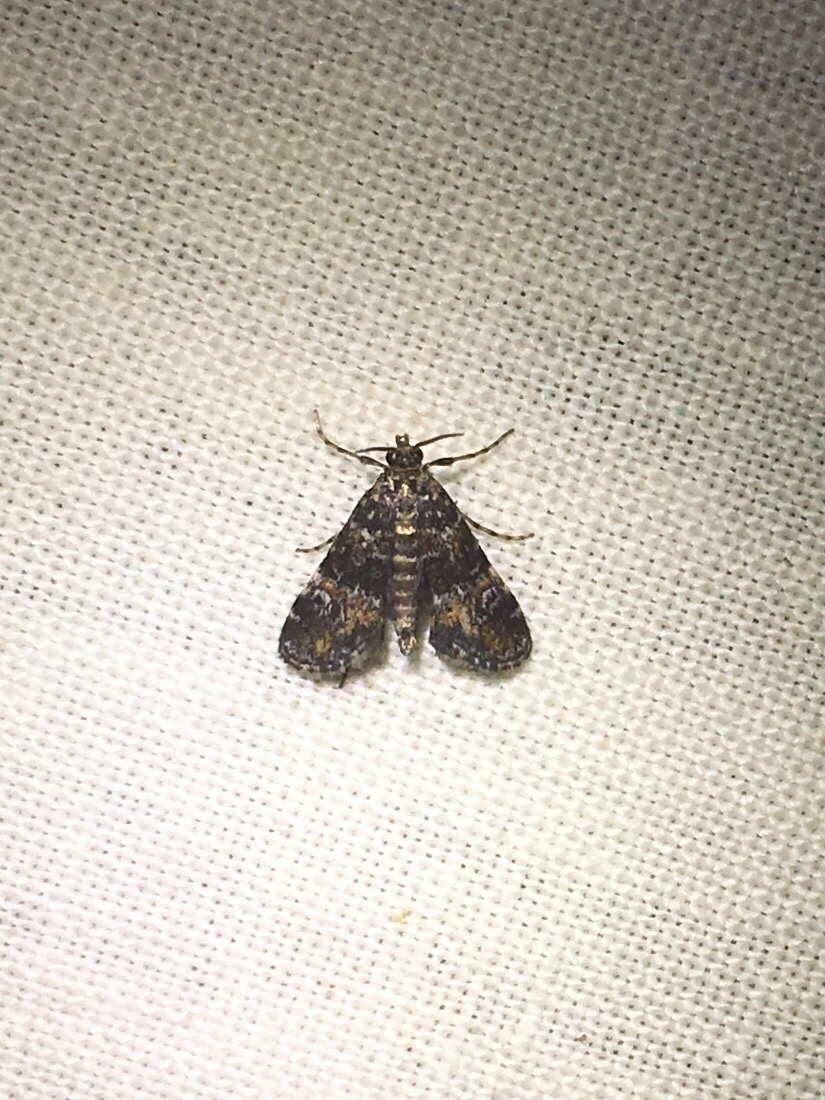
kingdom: Animalia
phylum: Arthropoda
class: Insecta
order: Lepidoptera
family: Crambidae
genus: Elophila
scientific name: Elophila obliteralis
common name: Waterlily leafcutter moth
